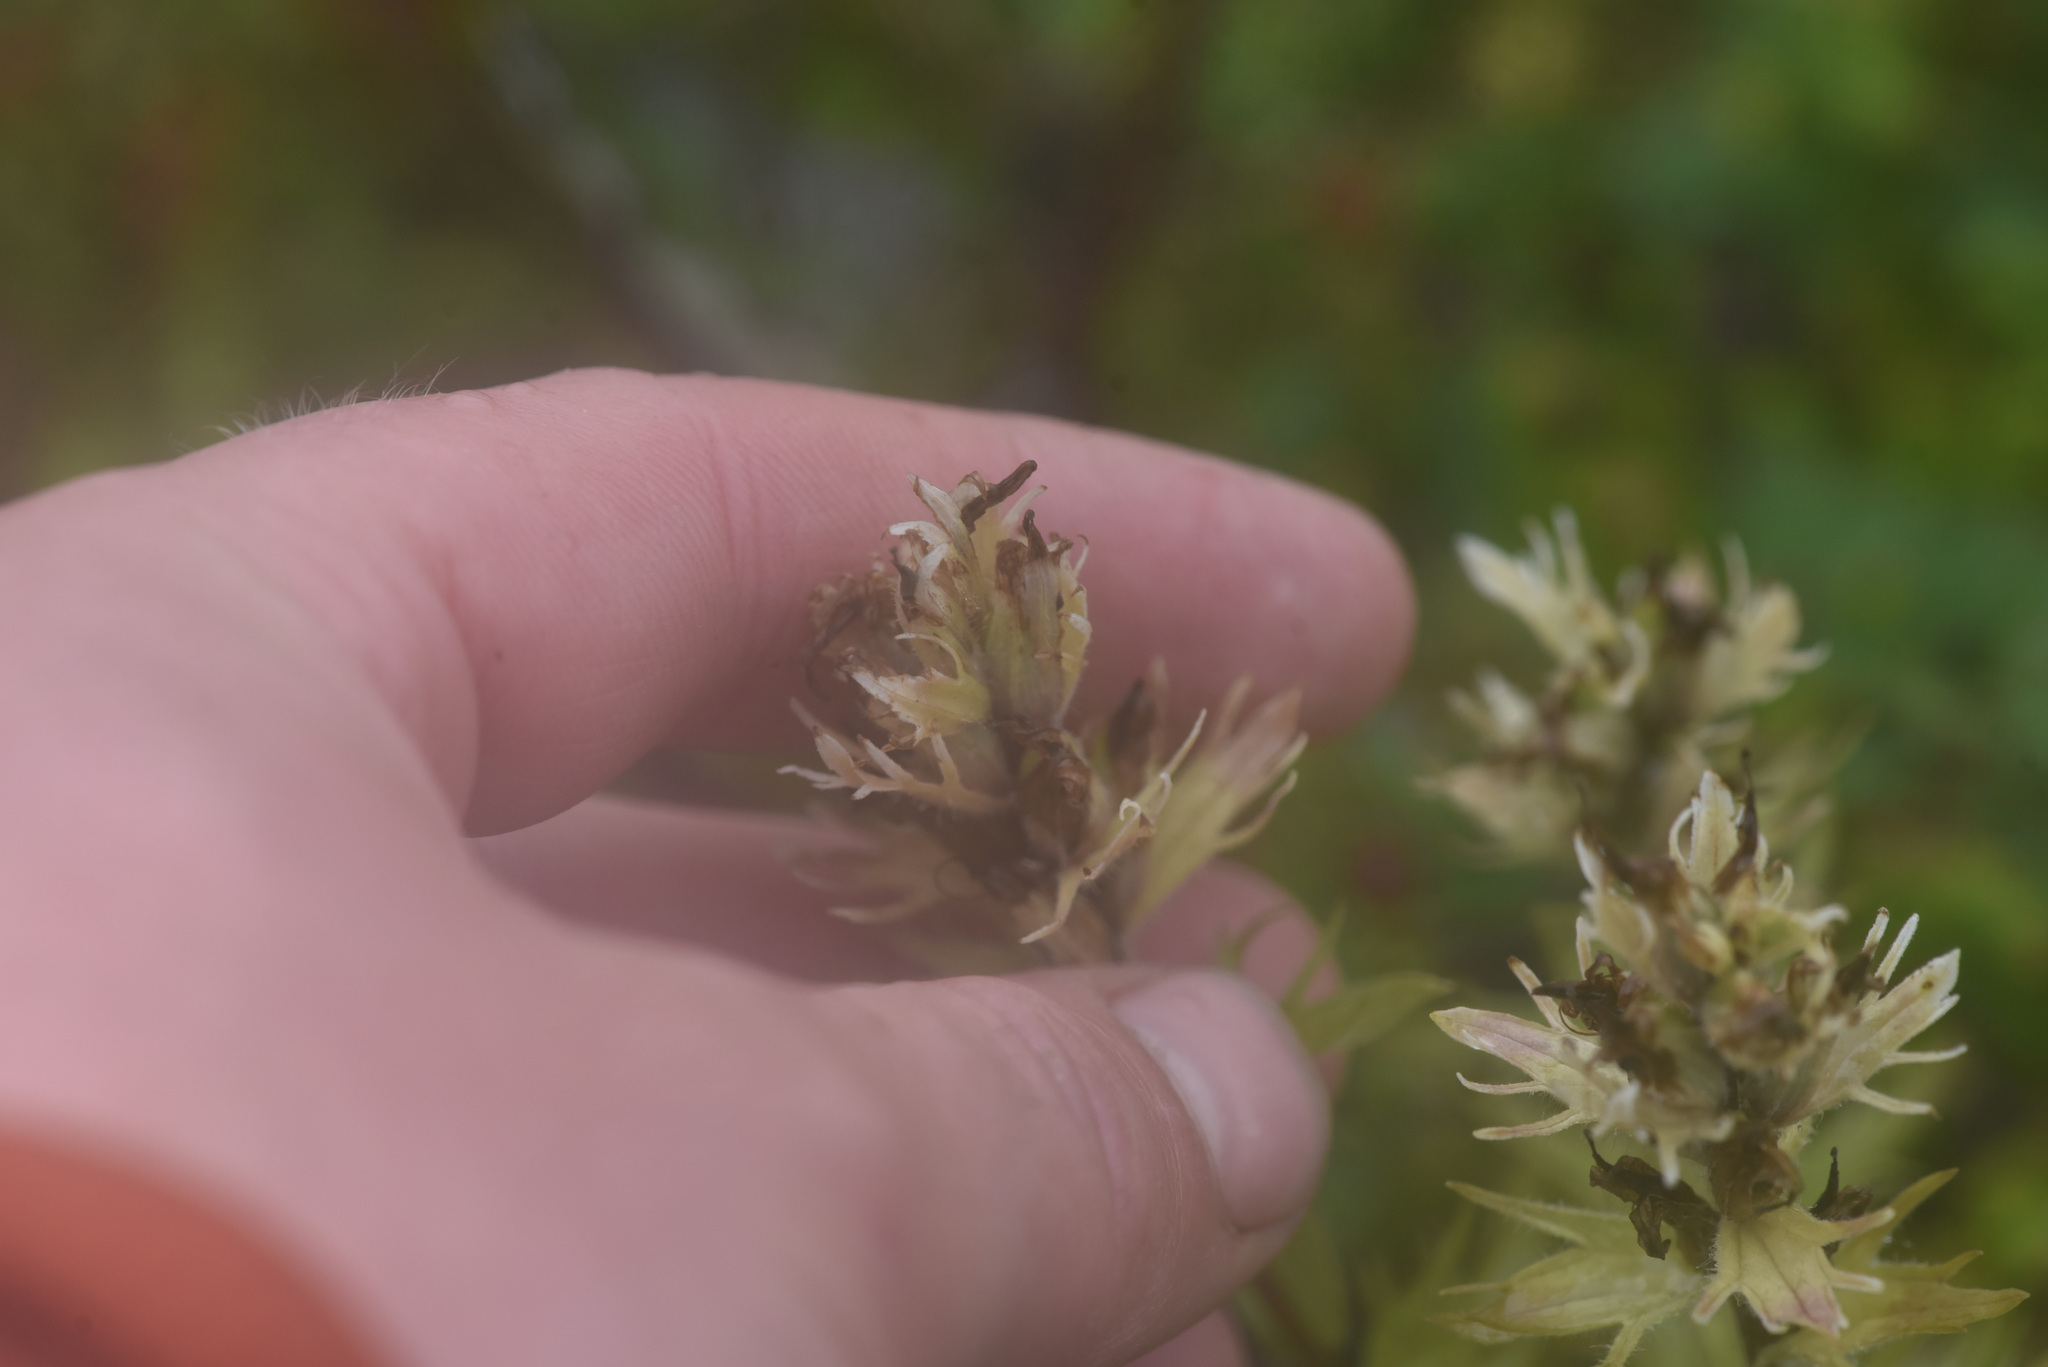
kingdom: Plantae
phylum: Tracheophyta
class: Magnoliopsida
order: Lamiales
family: Orobanchaceae
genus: Castilleja
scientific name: Castilleja parviflora
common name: Mountain paintbrush
